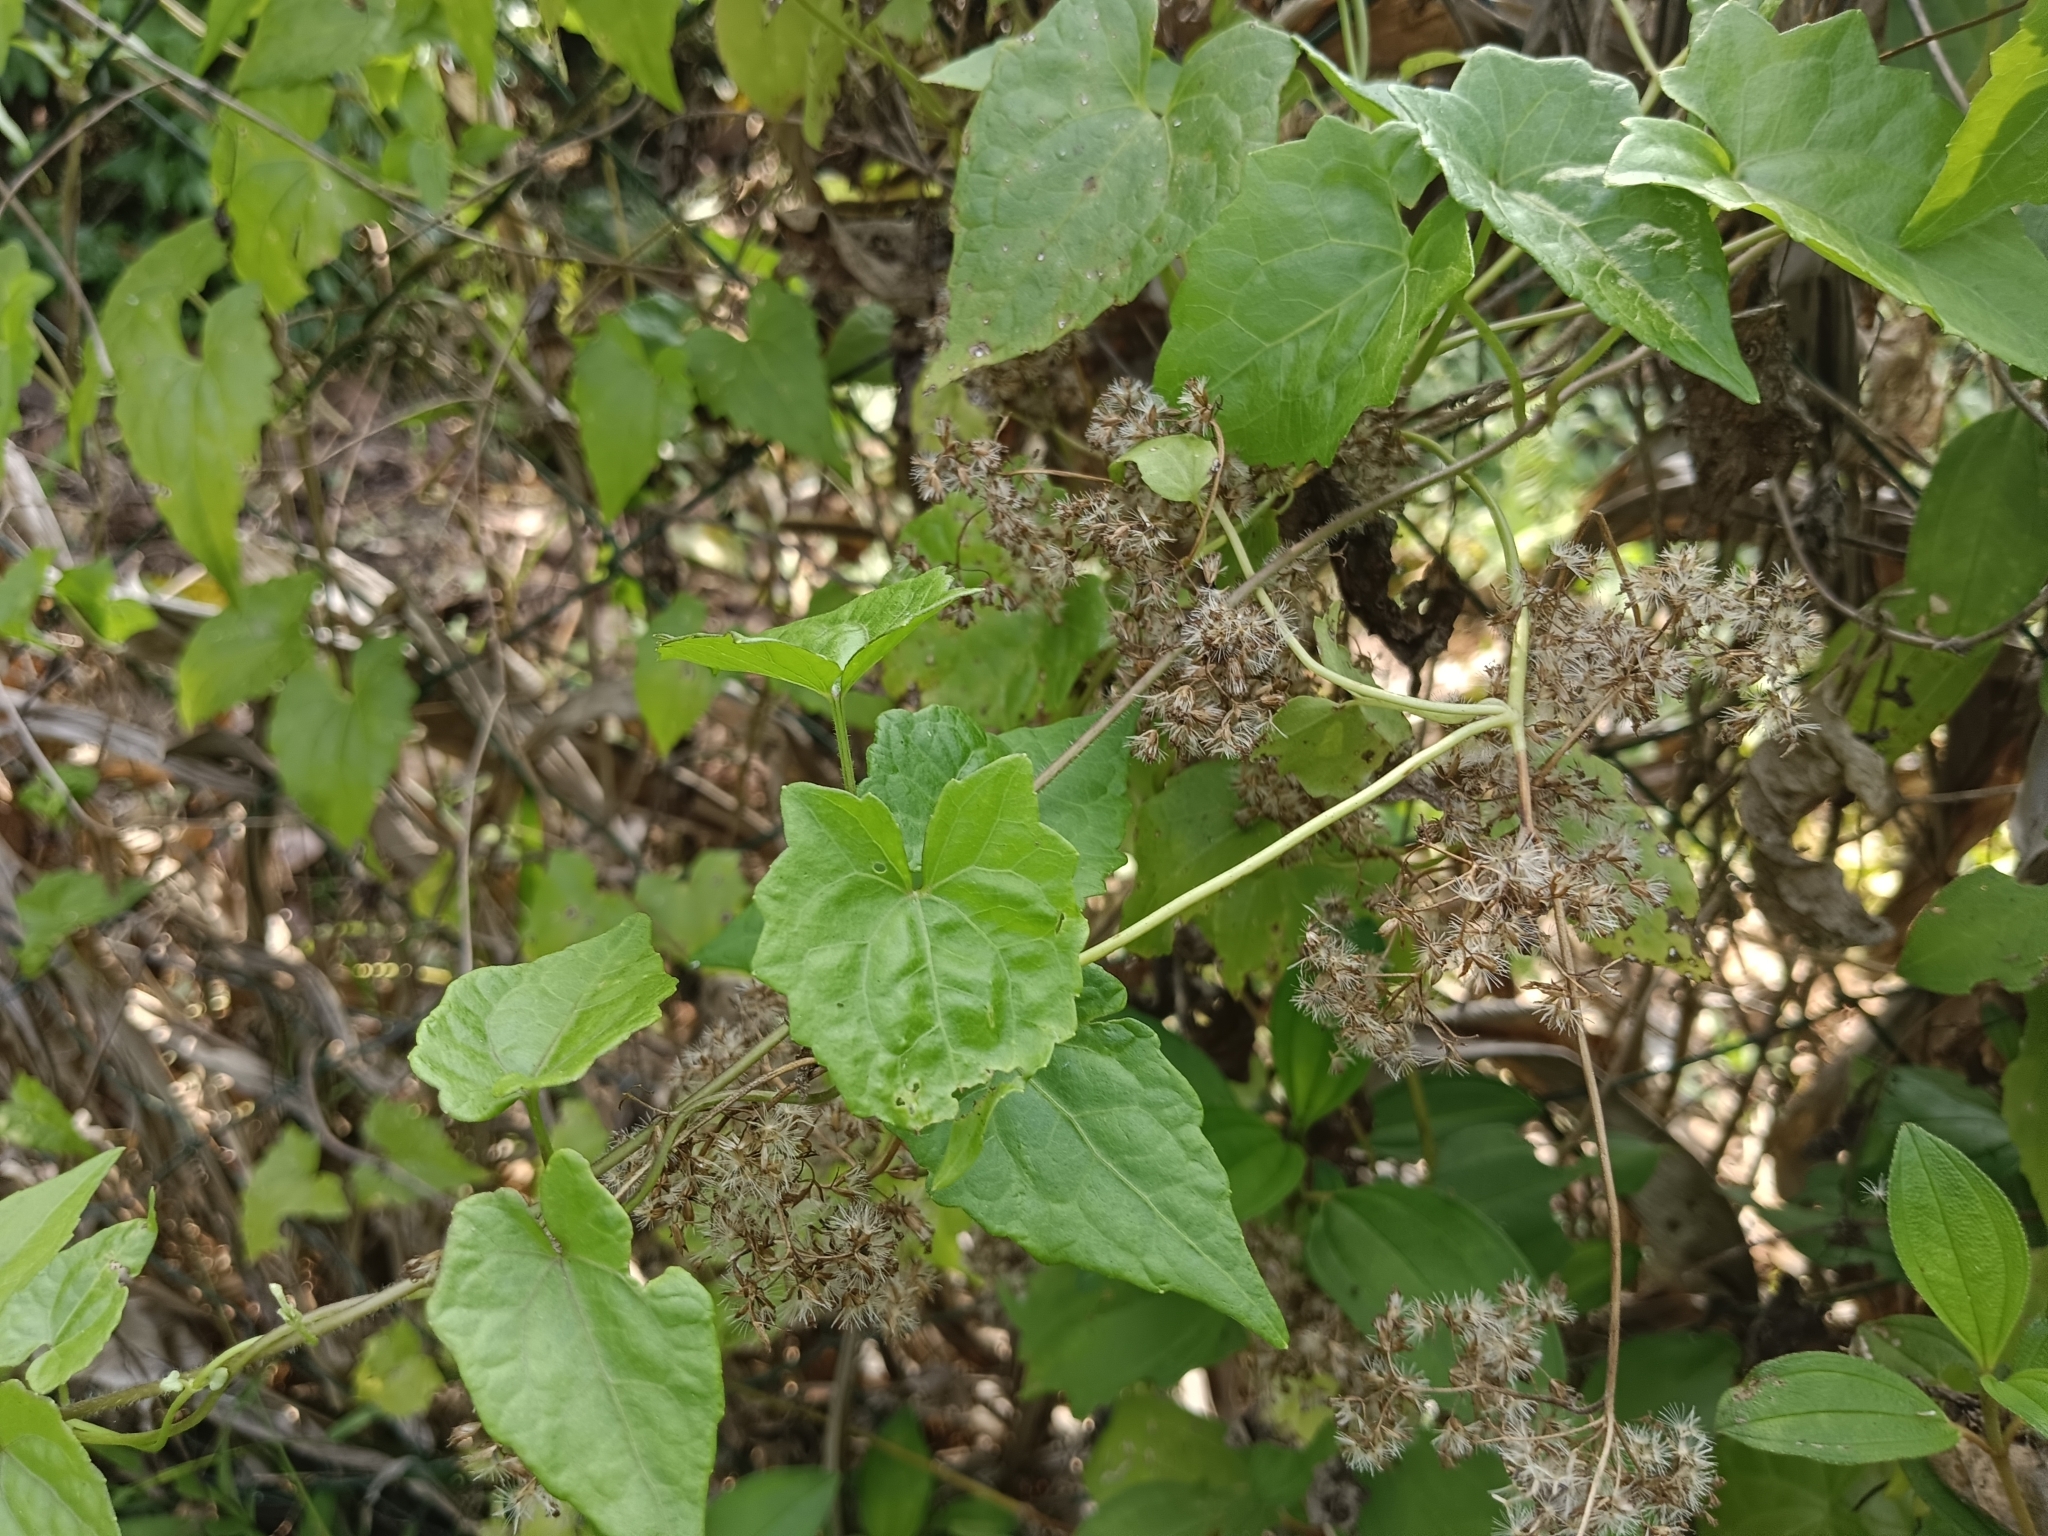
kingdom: Plantae
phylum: Tracheophyta
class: Magnoliopsida
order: Asterales
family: Asteraceae
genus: Mikania
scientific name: Mikania micrantha
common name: Mile-a-minute
